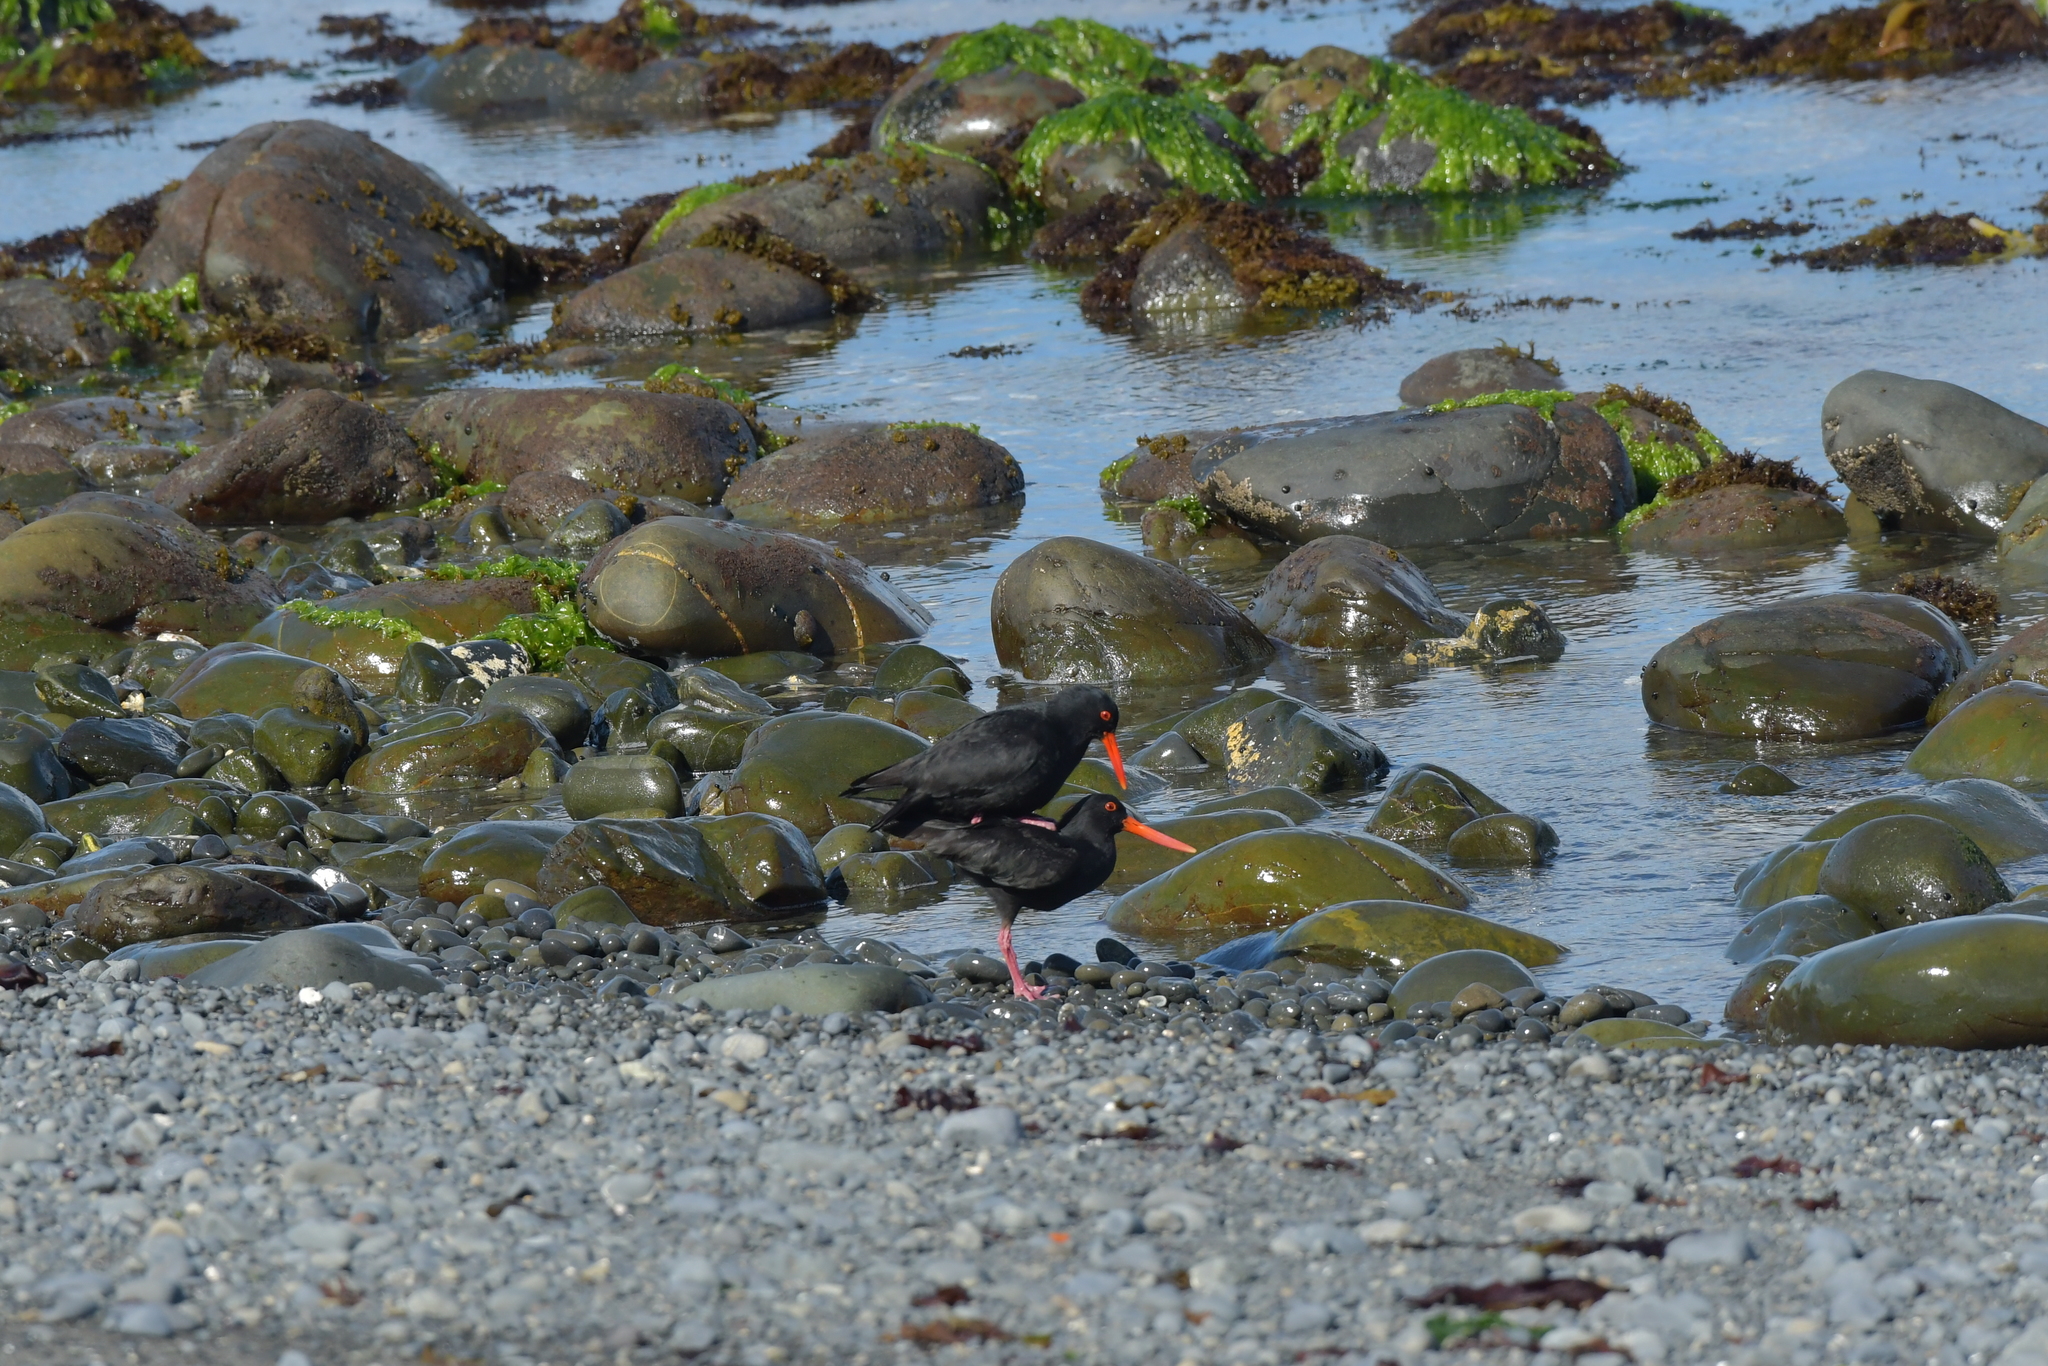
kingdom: Animalia
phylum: Chordata
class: Aves
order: Charadriiformes
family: Haematopodidae
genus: Haematopus
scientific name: Haematopus unicolor
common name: Variable oystercatcher
